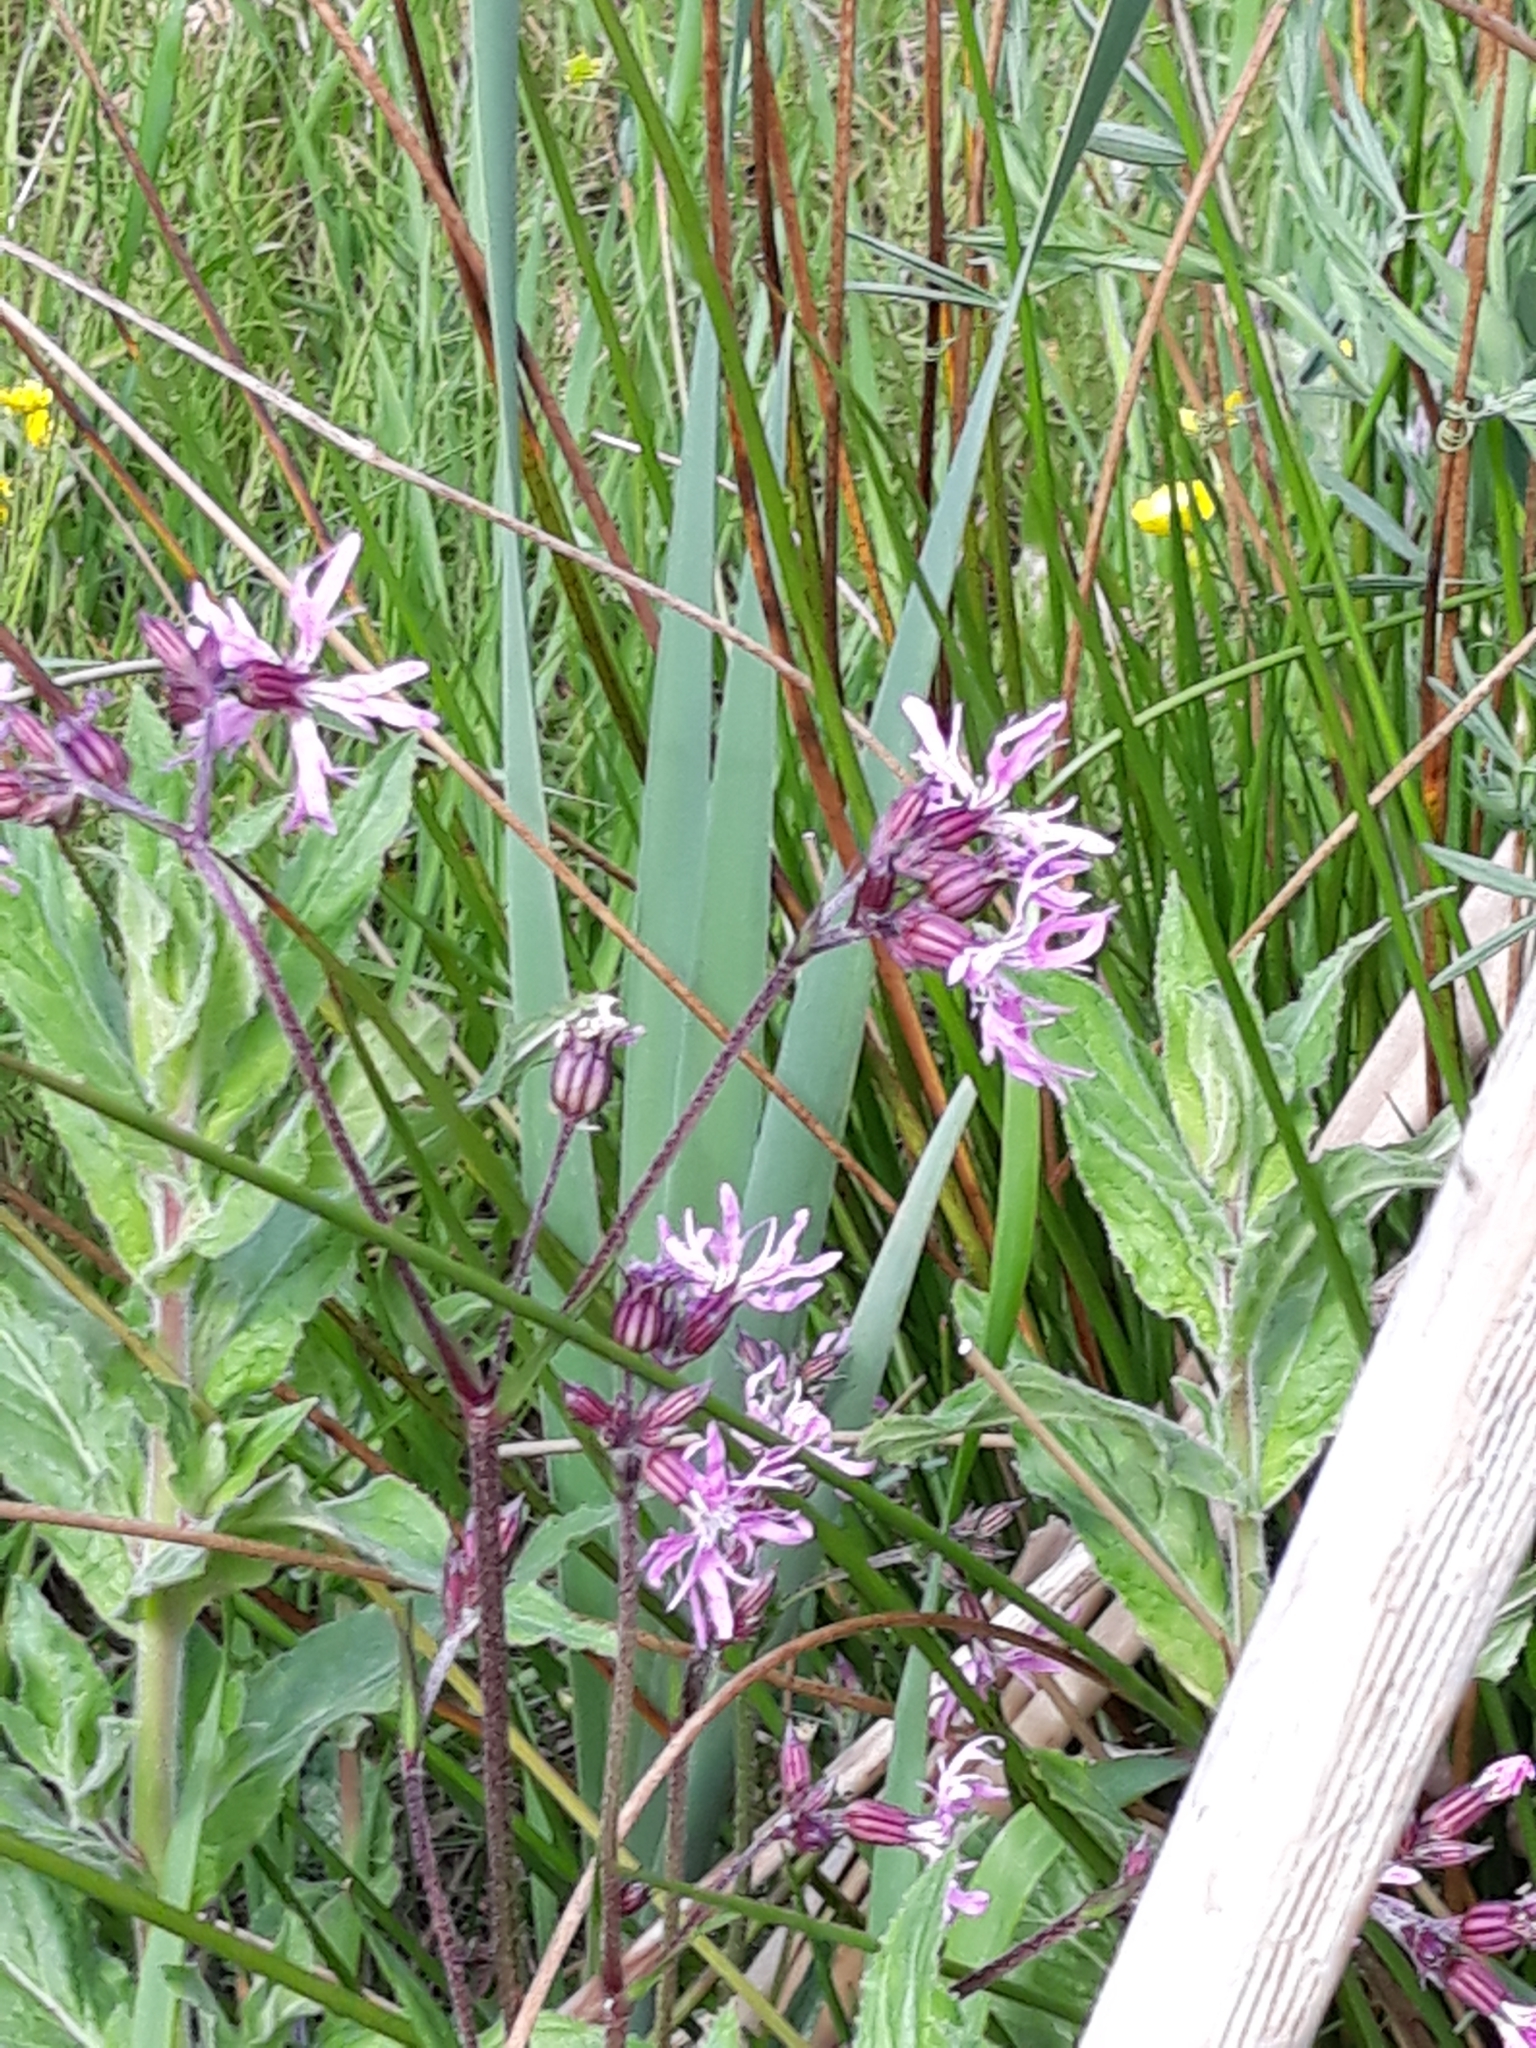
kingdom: Plantae
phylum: Tracheophyta
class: Magnoliopsida
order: Caryophyllales
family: Caryophyllaceae
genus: Silene
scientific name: Silene flos-cuculi
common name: Ragged-robin
